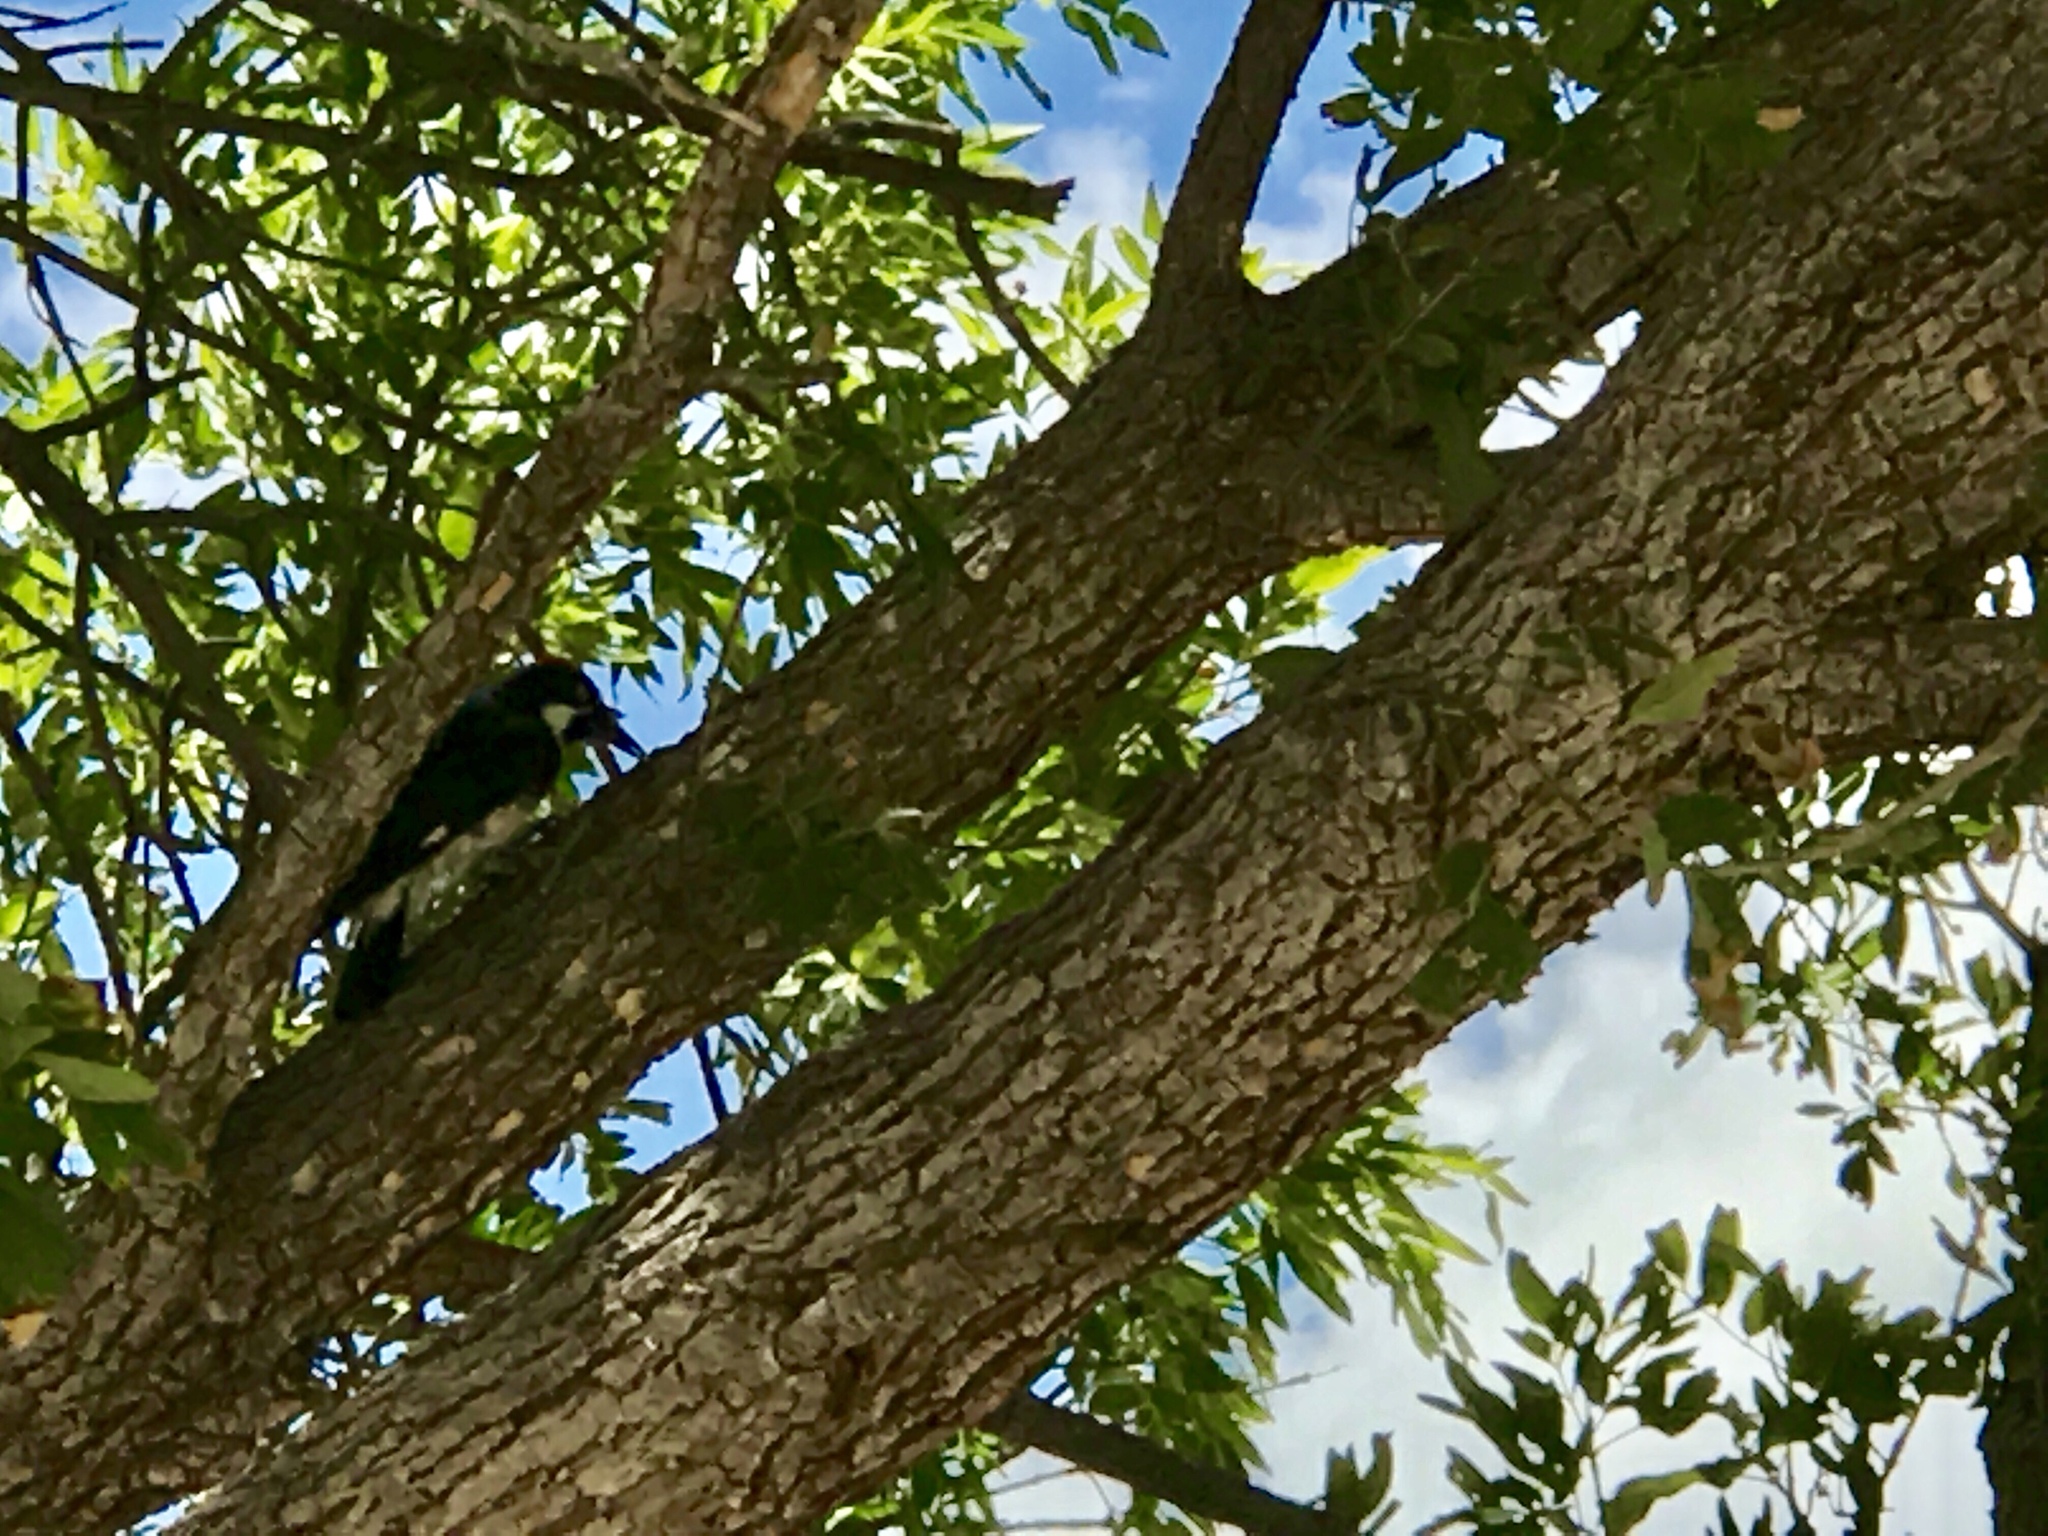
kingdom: Animalia
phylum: Chordata
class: Aves
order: Piciformes
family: Picidae
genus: Melanerpes
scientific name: Melanerpes formicivorus
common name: Acorn woodpecker
